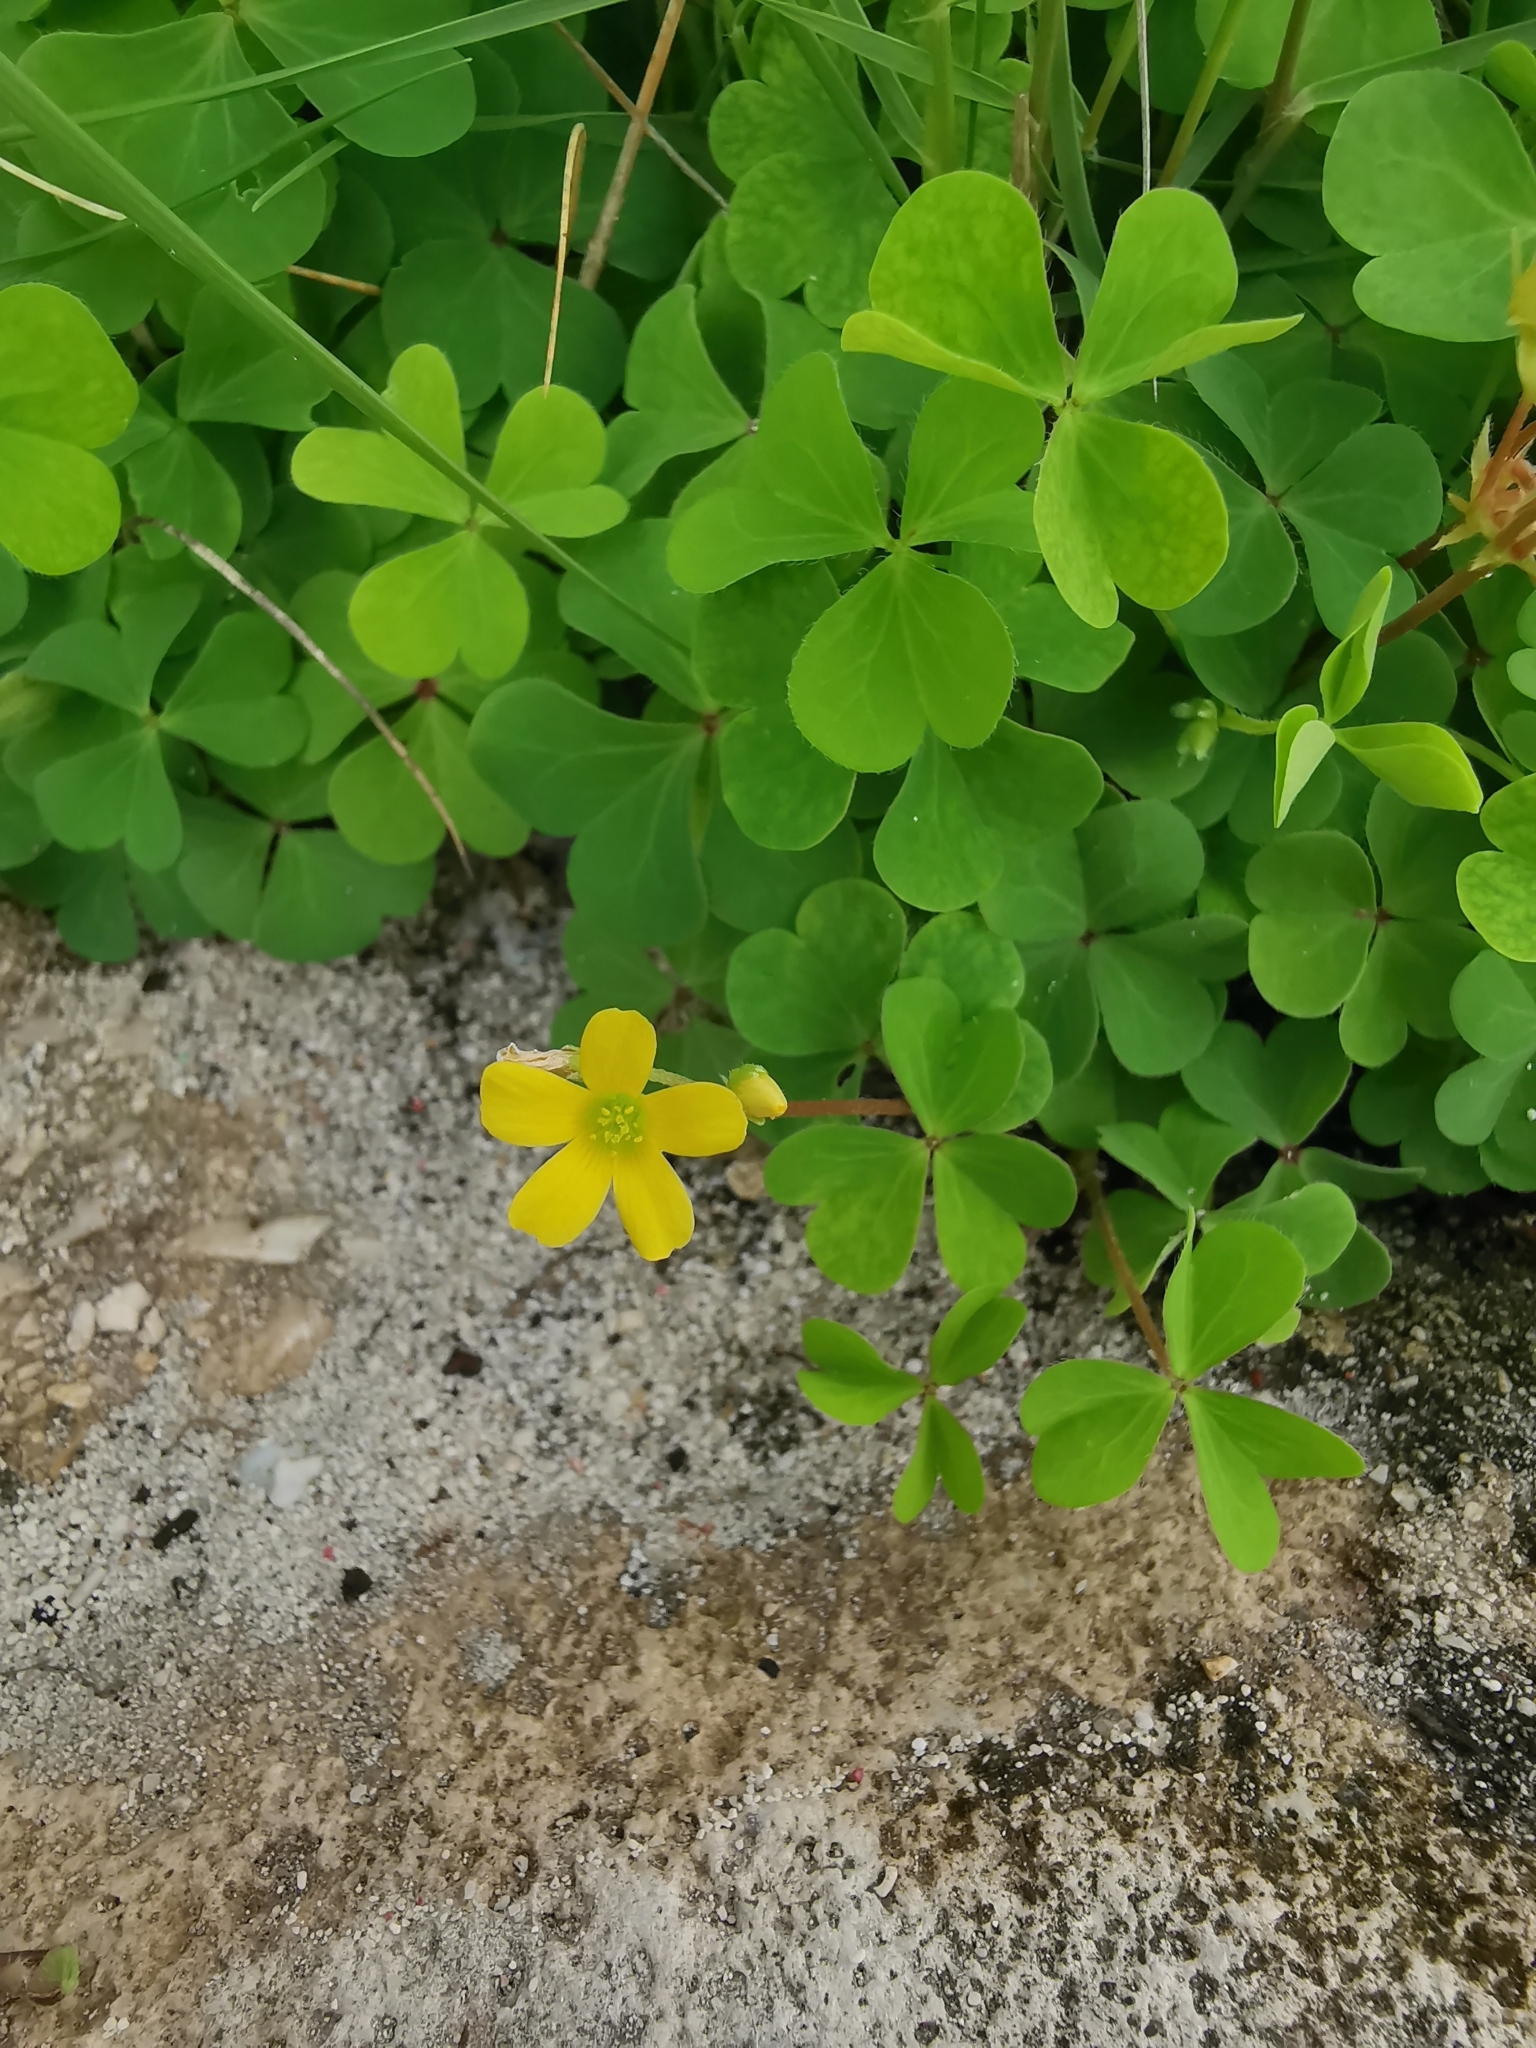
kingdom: Plantae
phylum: Tracheophyta
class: Magnoliopsida
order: Oxalidales
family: Oxalidaceae
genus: Oxalis
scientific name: Oxalis corniculata
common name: Procumbent yellow-sorrel
